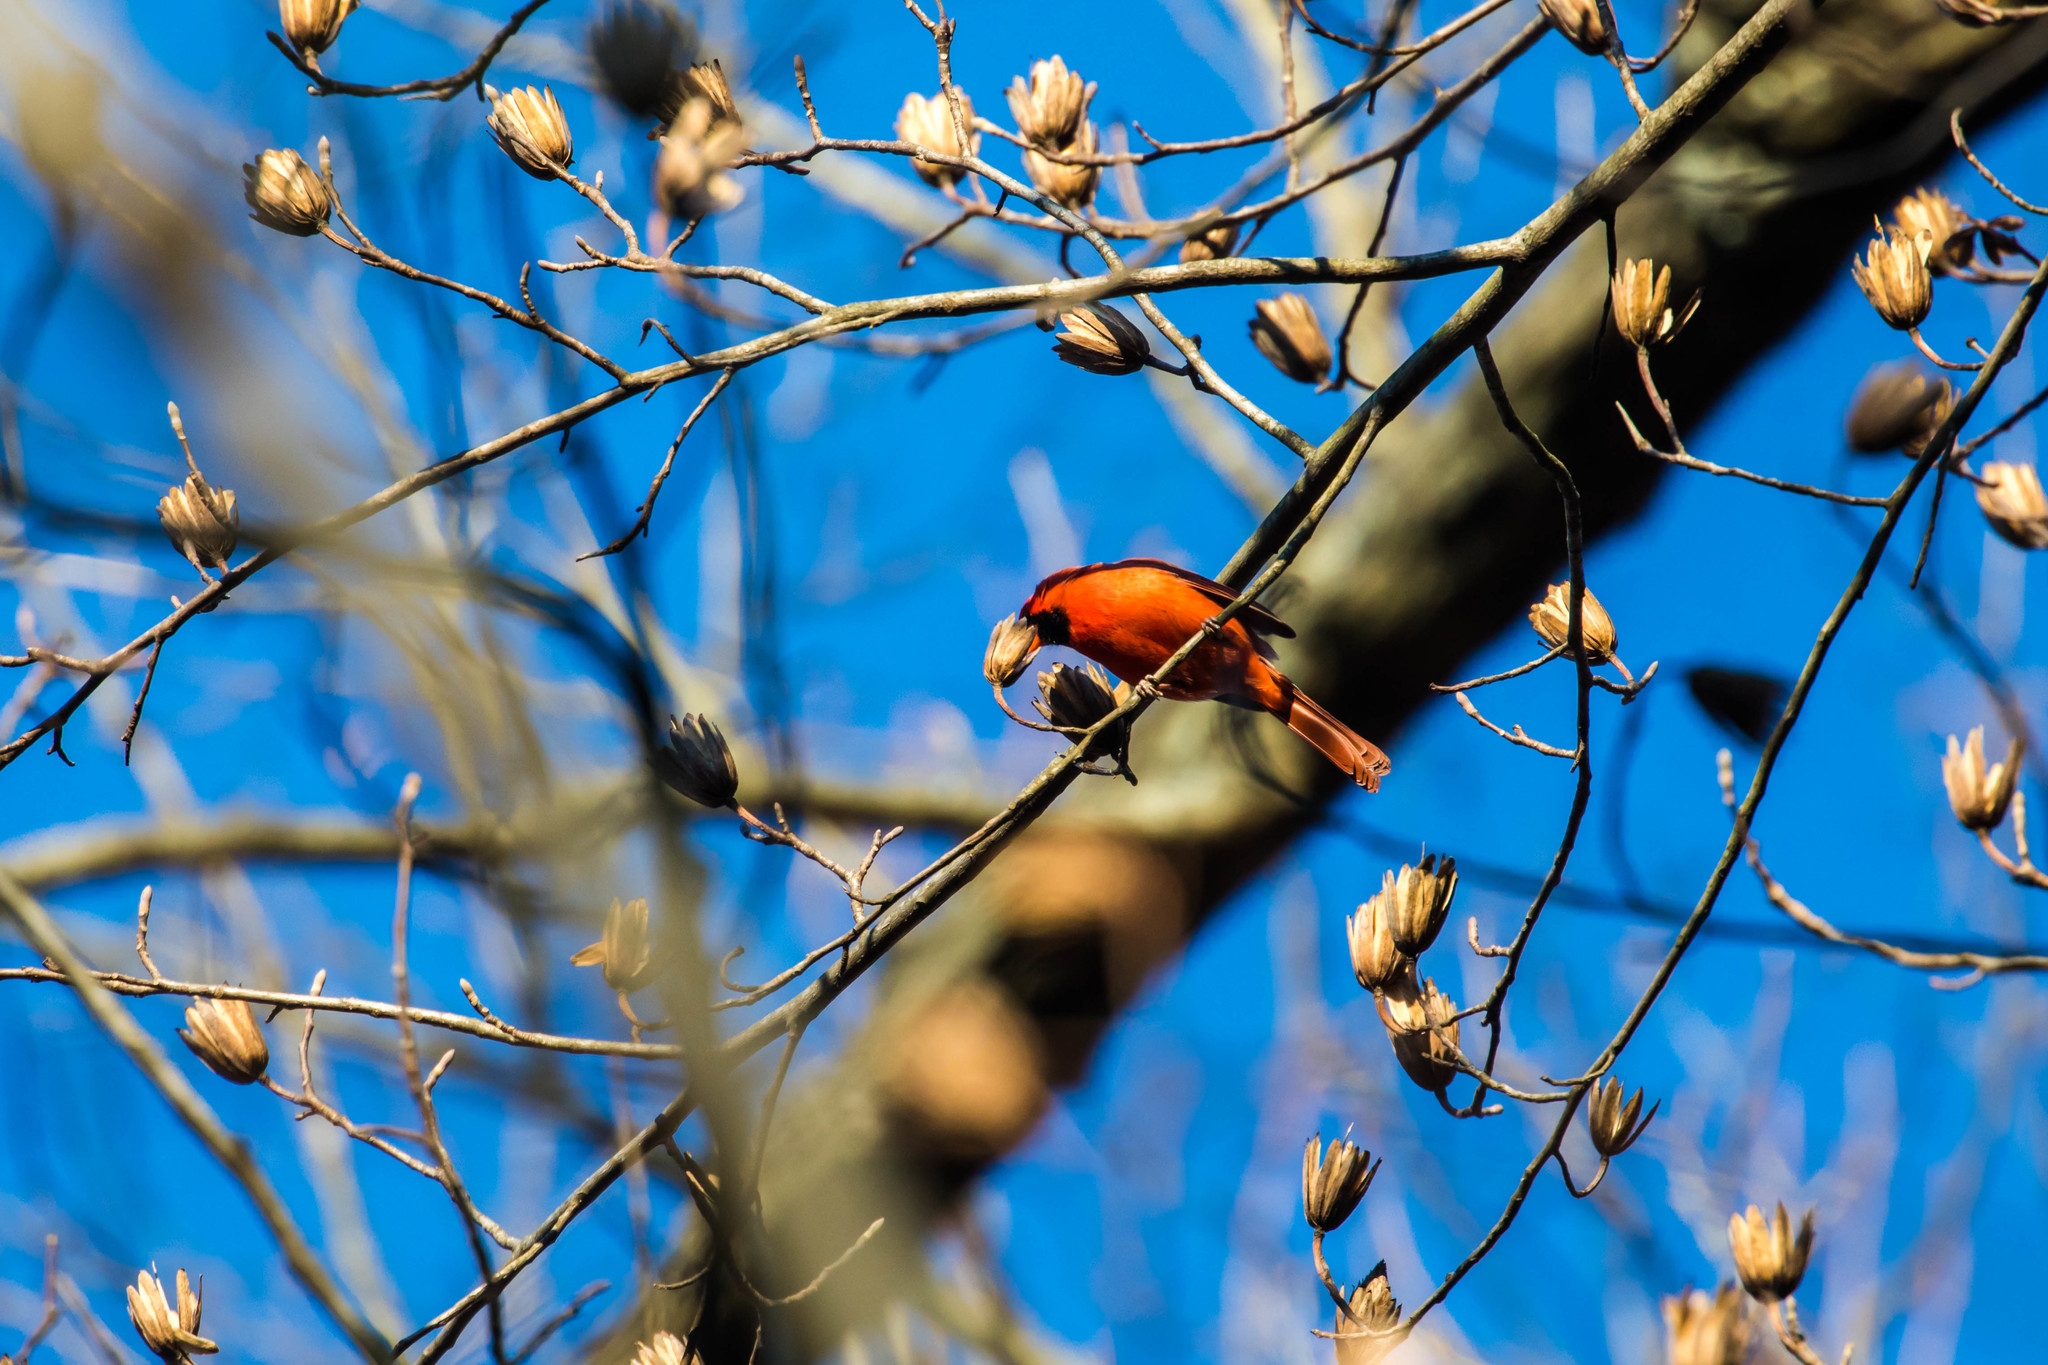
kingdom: Animalia
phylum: Chordata
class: Aves
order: Passeriformes
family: Cardinalidae
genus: Cardinalis
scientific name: Cardinalis cardinalis
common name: Northern cardinal
